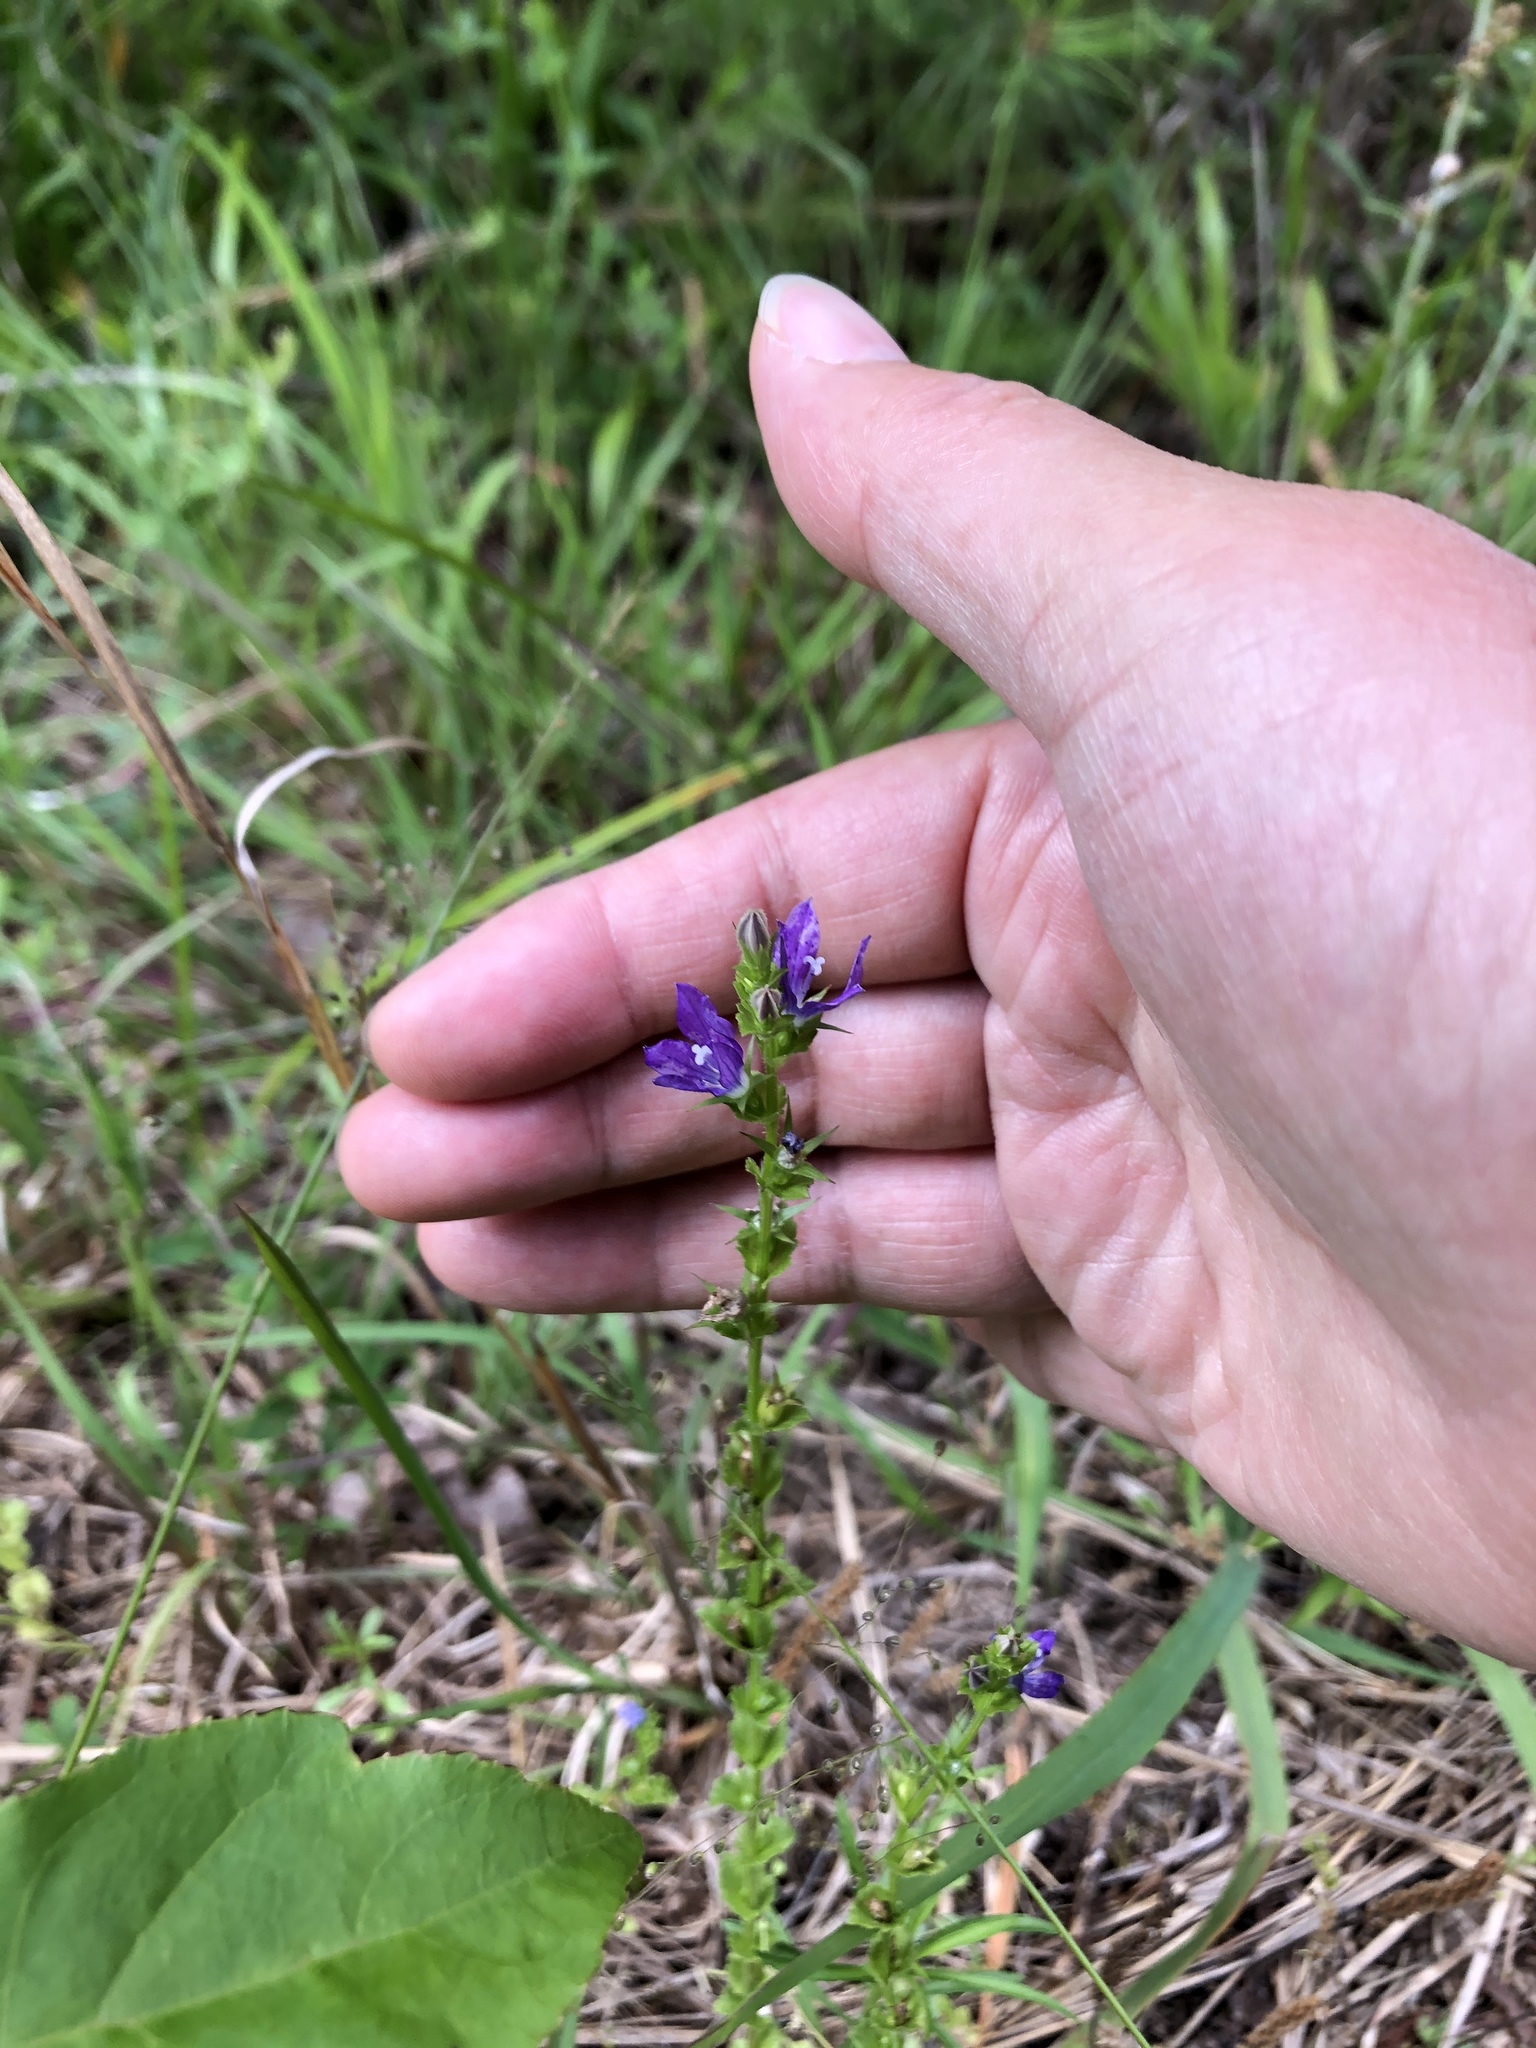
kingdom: Plantae
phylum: Tracheophyta
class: Magnoliopsida
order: Asterales
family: Campanulaceae
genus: Triodanis
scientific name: Triodanis perfoliata
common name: Clasping venus' looking-glass
